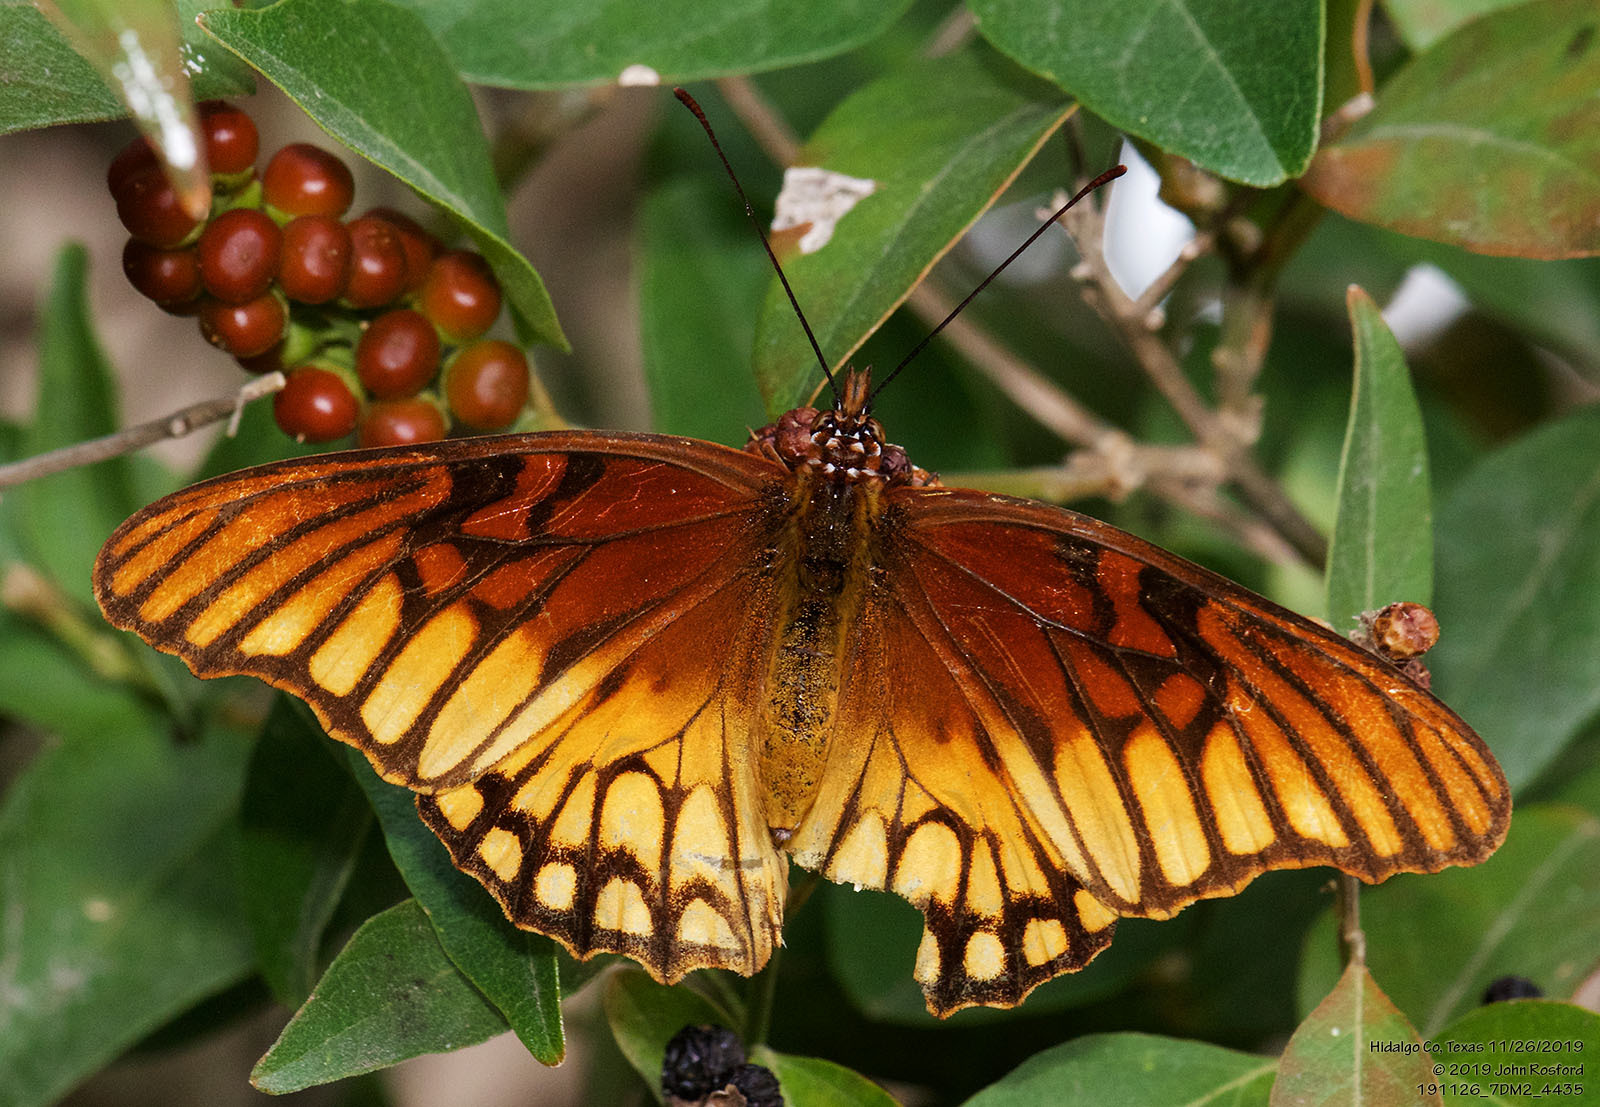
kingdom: Animalia
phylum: Arthropoda
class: Insecta
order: Lepidoptera
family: Nymphalidae
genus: Dione
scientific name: Dione moneta
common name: Mexican silverspot
